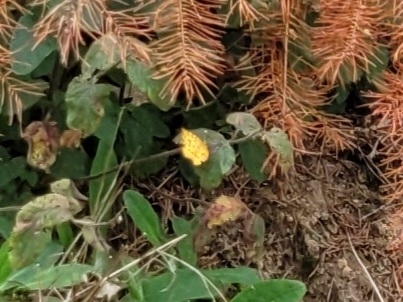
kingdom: Animalia
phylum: Arthropoda
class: Insecta
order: Lepidoptera
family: Geometridae
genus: Pseudopanthera
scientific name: Pseudopanthera macularia
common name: Speckled yellow
